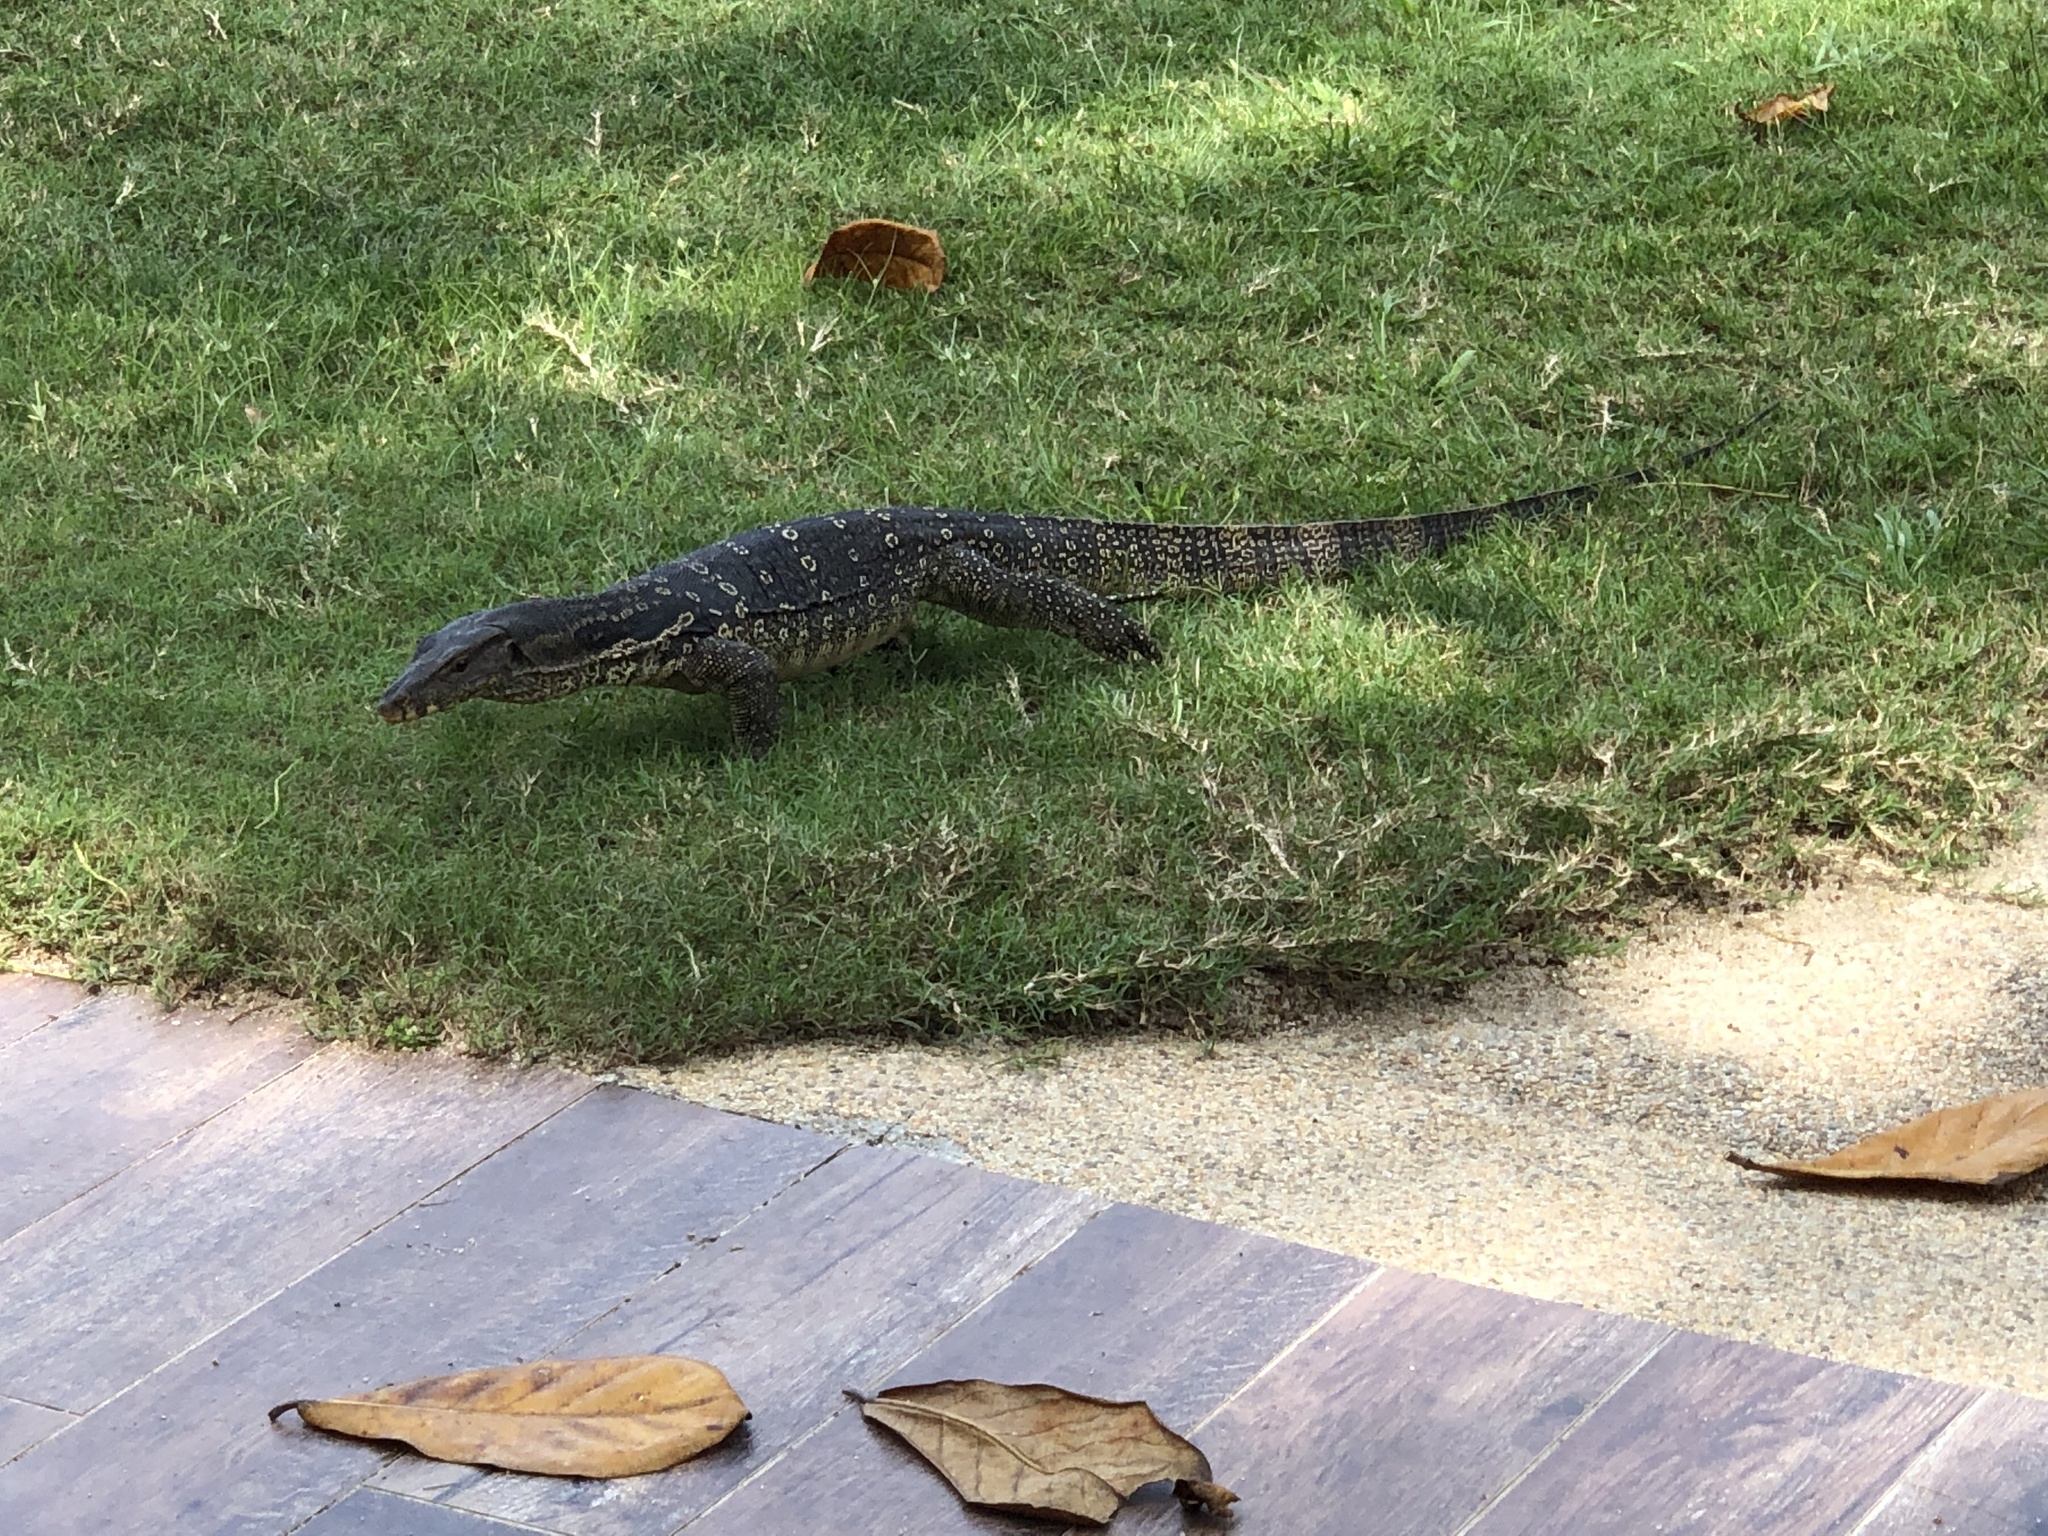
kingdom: Animalia
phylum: Chordata
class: Squamata
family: Varanidae
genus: Varanus
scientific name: Varanus salvator
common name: Common water monitor
